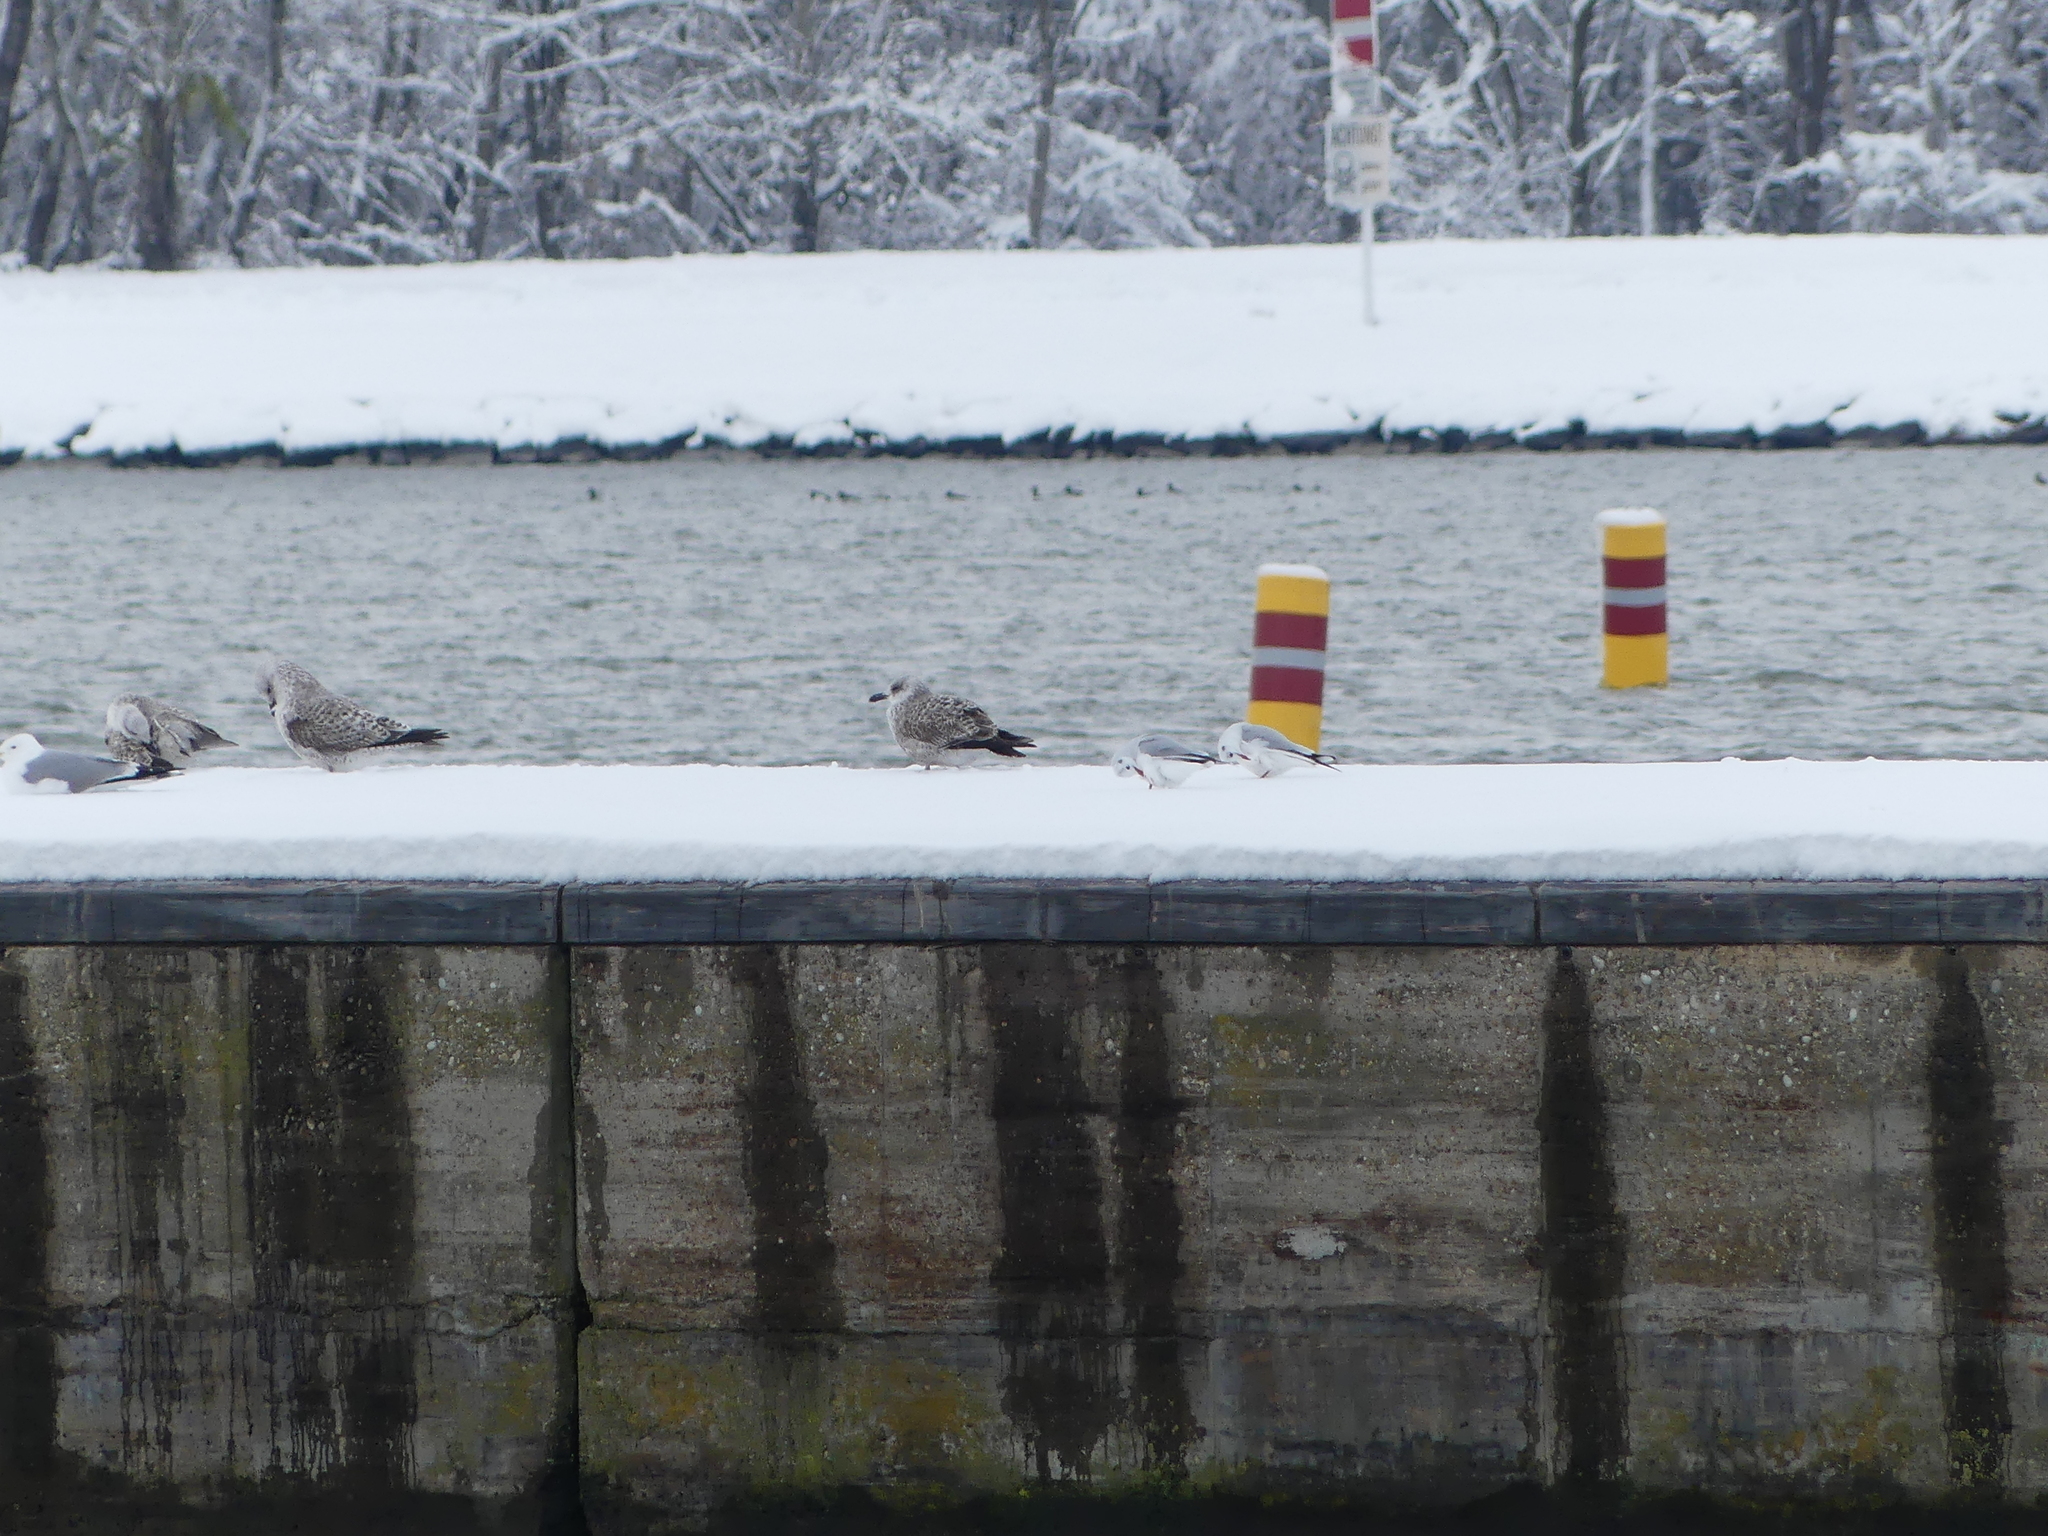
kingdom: Animalia
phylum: Chordata
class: Aves
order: Charadriiformes
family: Laridae
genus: Chroicocephalus
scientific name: Chroicocephalus ridibundus
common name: Black-headed gull
